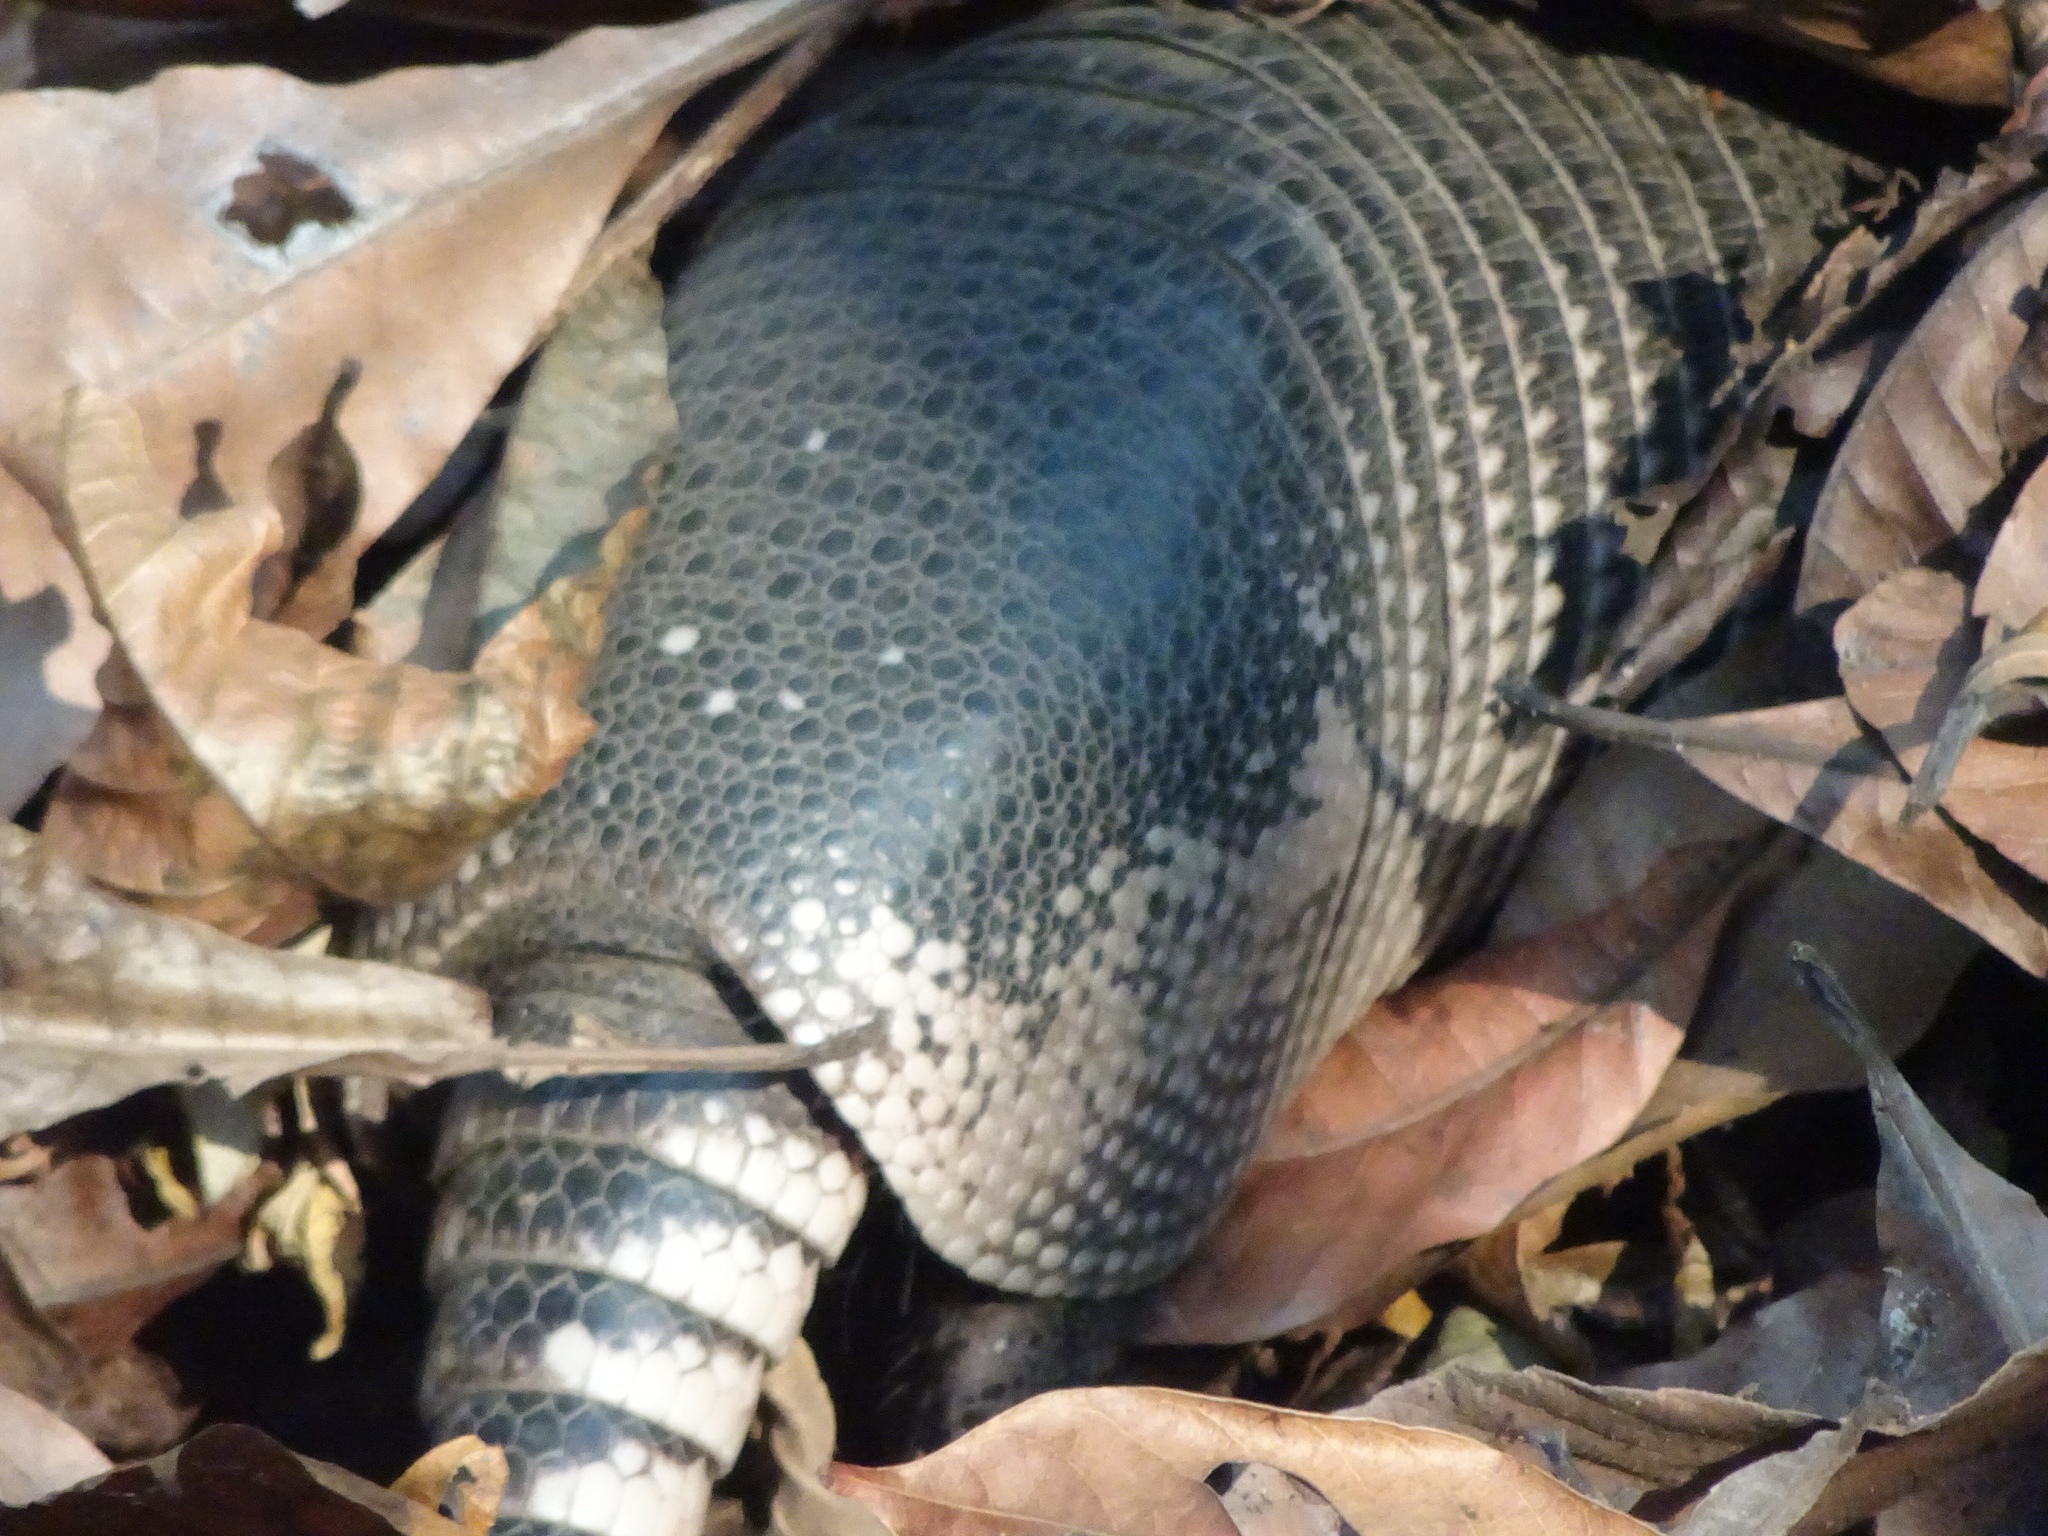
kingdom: Animalia
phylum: Chordata
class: Mammalia
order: Cingulata
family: Dasypodidae
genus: Dasypus
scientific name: Dasypus novemcinctus
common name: Nine-banded armadillo
